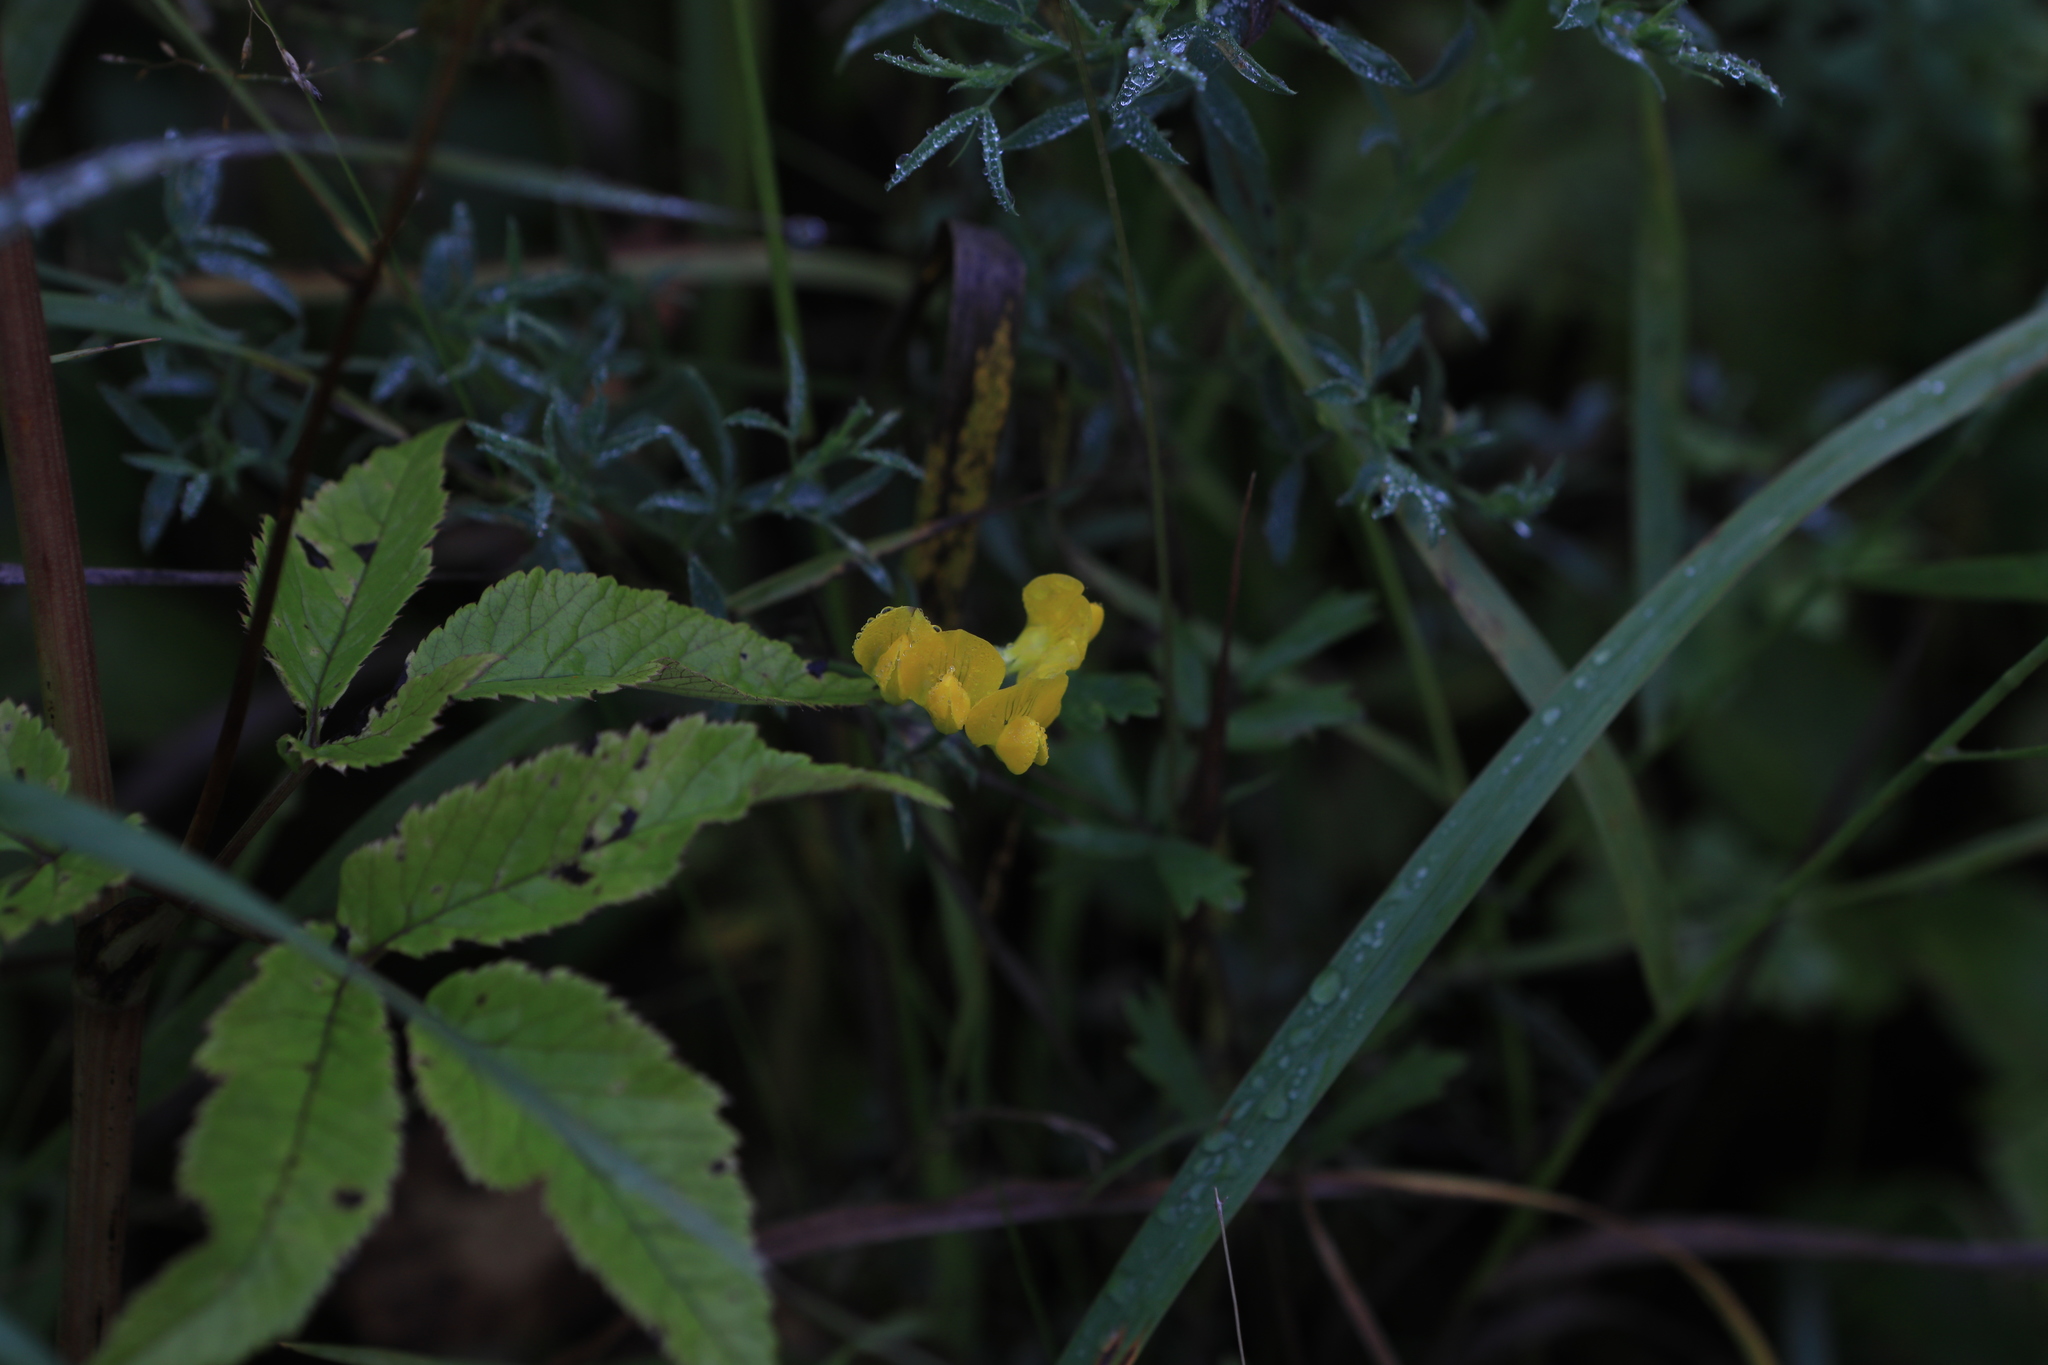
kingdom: Plantae
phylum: Tracheophyta
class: Magnoliopsida
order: Fabales
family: Fabaceae
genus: Lathyrus
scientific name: Lathyrus pratensis
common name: Meadow vetchling
